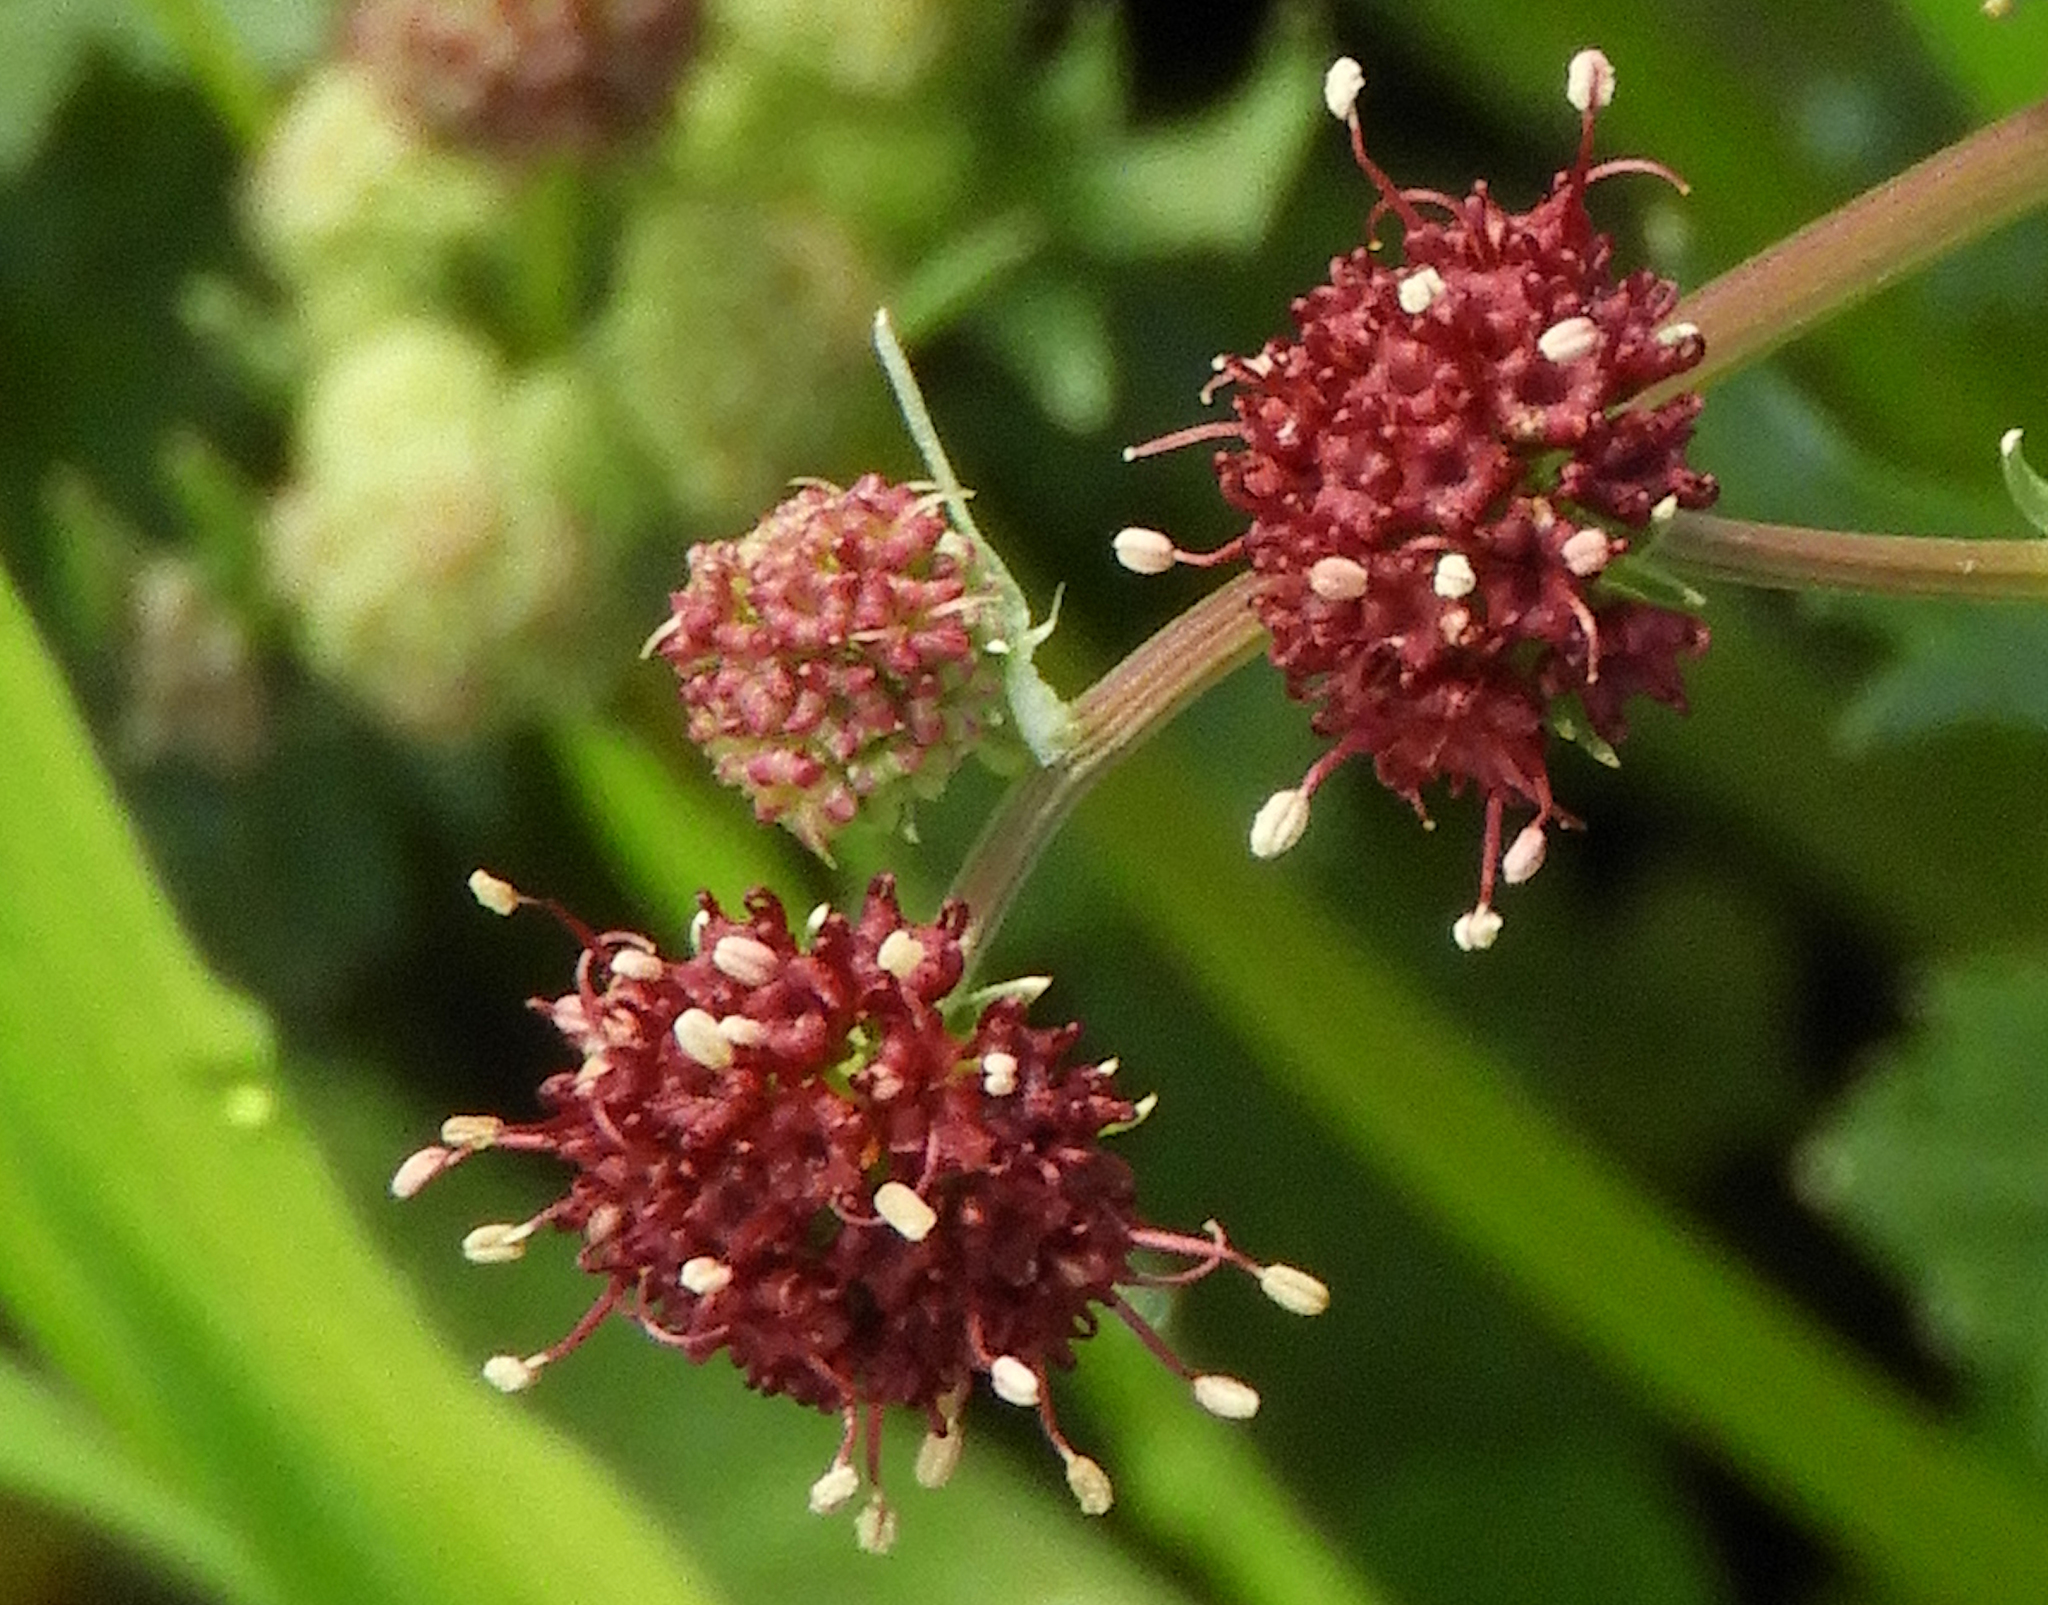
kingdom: Plantae
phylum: Tracheophyta
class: Magnoliopsida
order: Apiales
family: Apiaceae
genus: Sanicula
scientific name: Sanicula bipinnatifida
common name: Shoe-buttons
